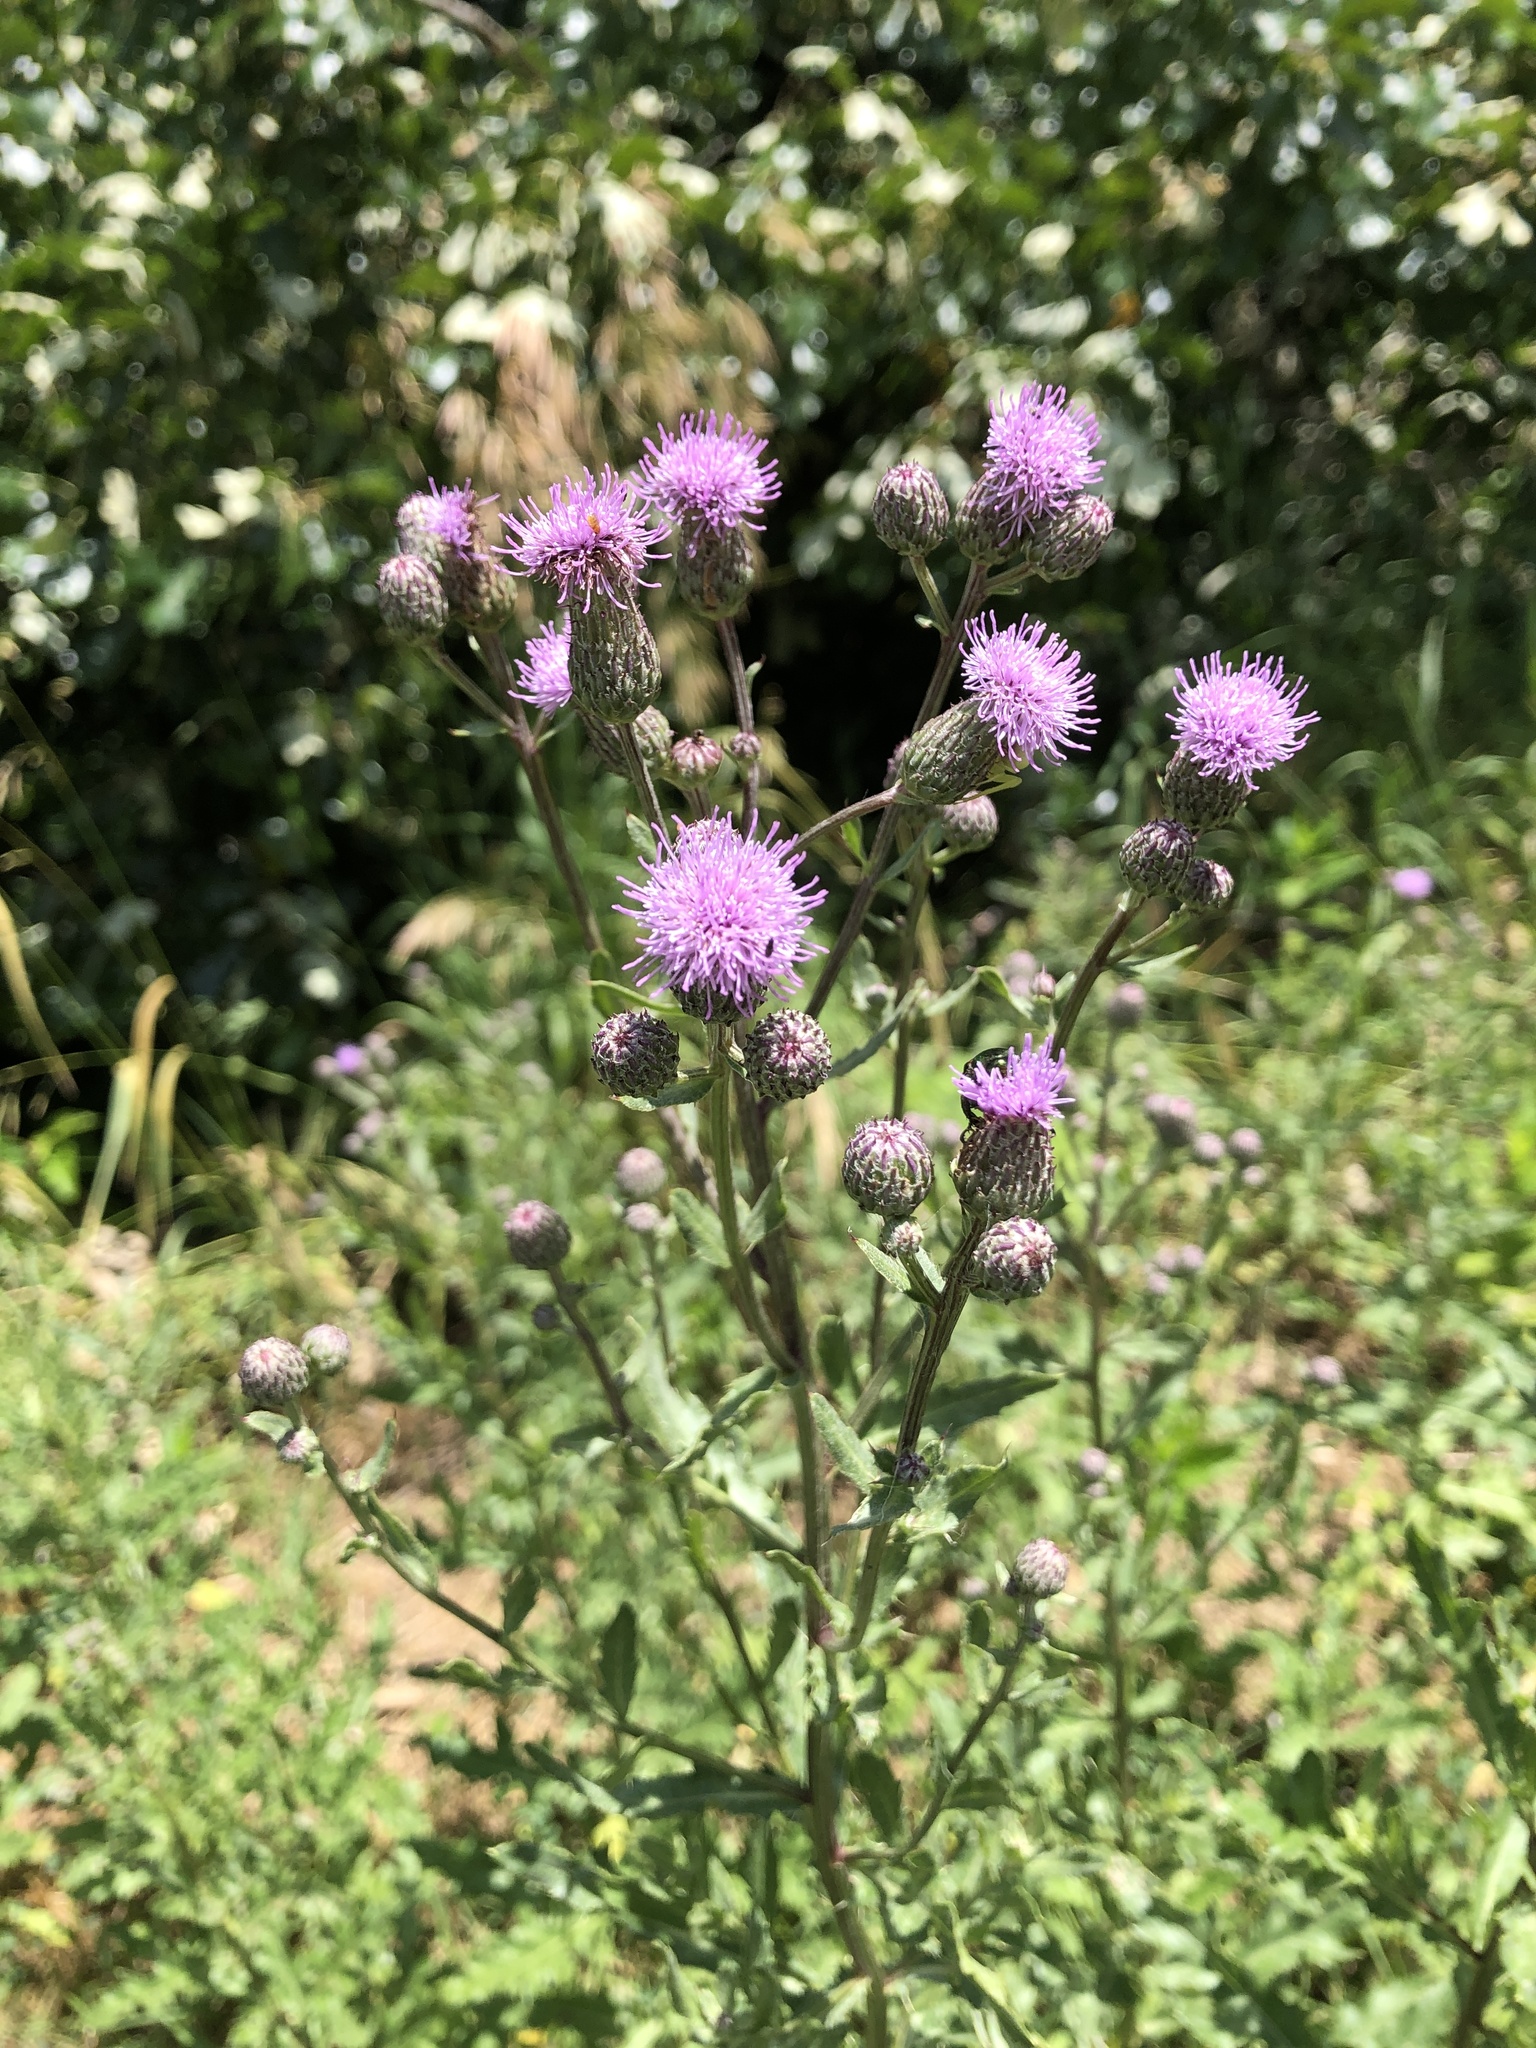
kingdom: Plantae
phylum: Tracheophyta
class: Magnoliopsida
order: Asterales
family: Asteraceae
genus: Cirsium
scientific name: Cirsium arvense
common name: Creeping thistle
